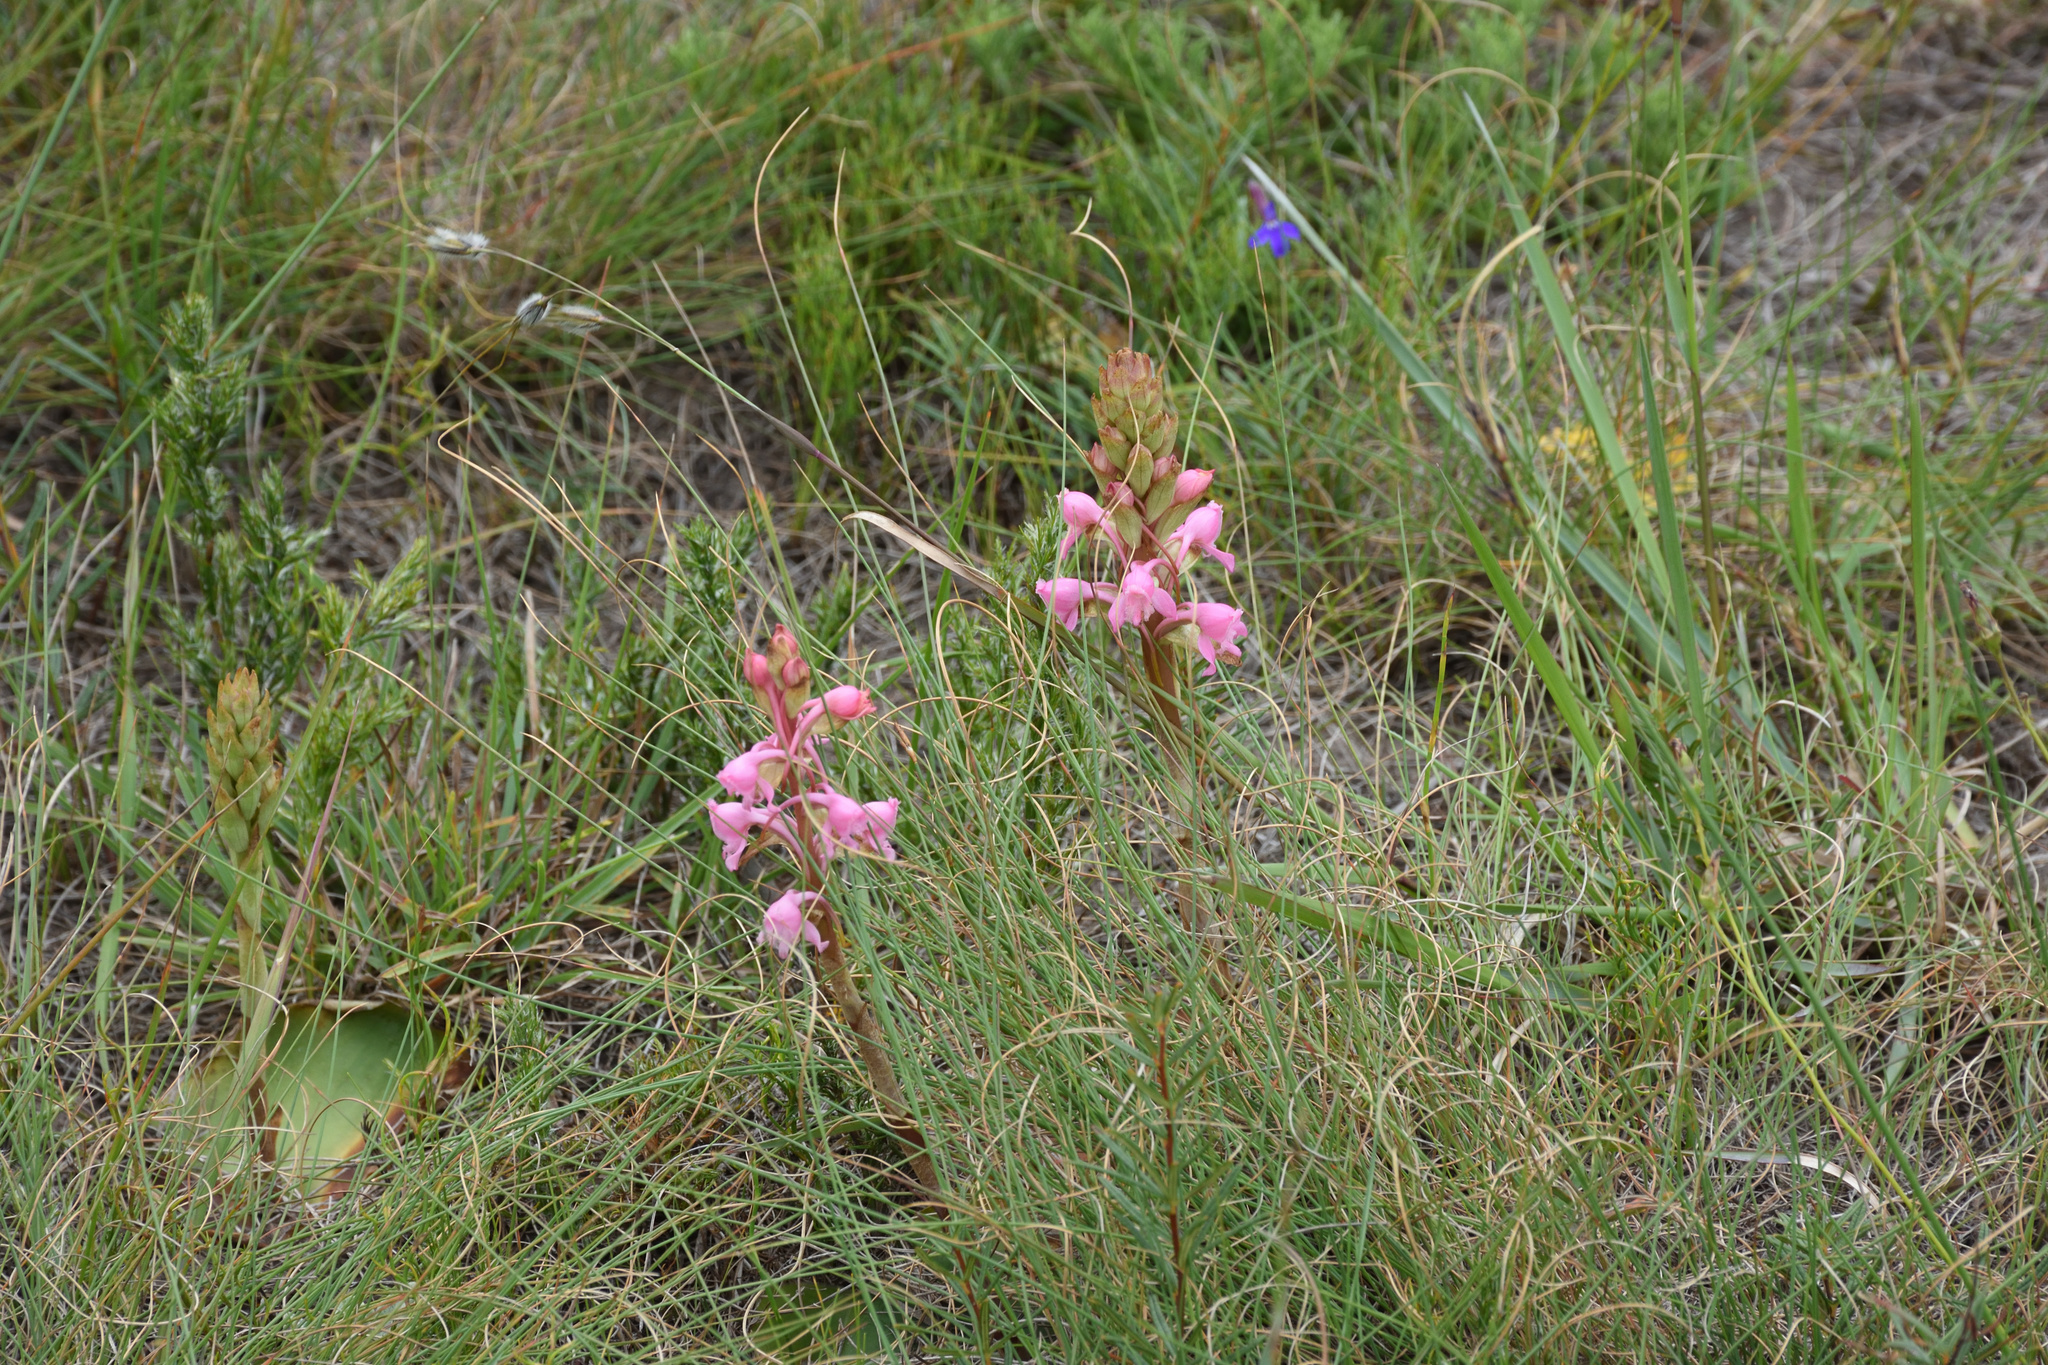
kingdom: Plantae
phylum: Tracheophyta
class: Liliopsida
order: Asparagales
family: Orchidaceae
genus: Satyrium
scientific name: Satyrium membranaceum
